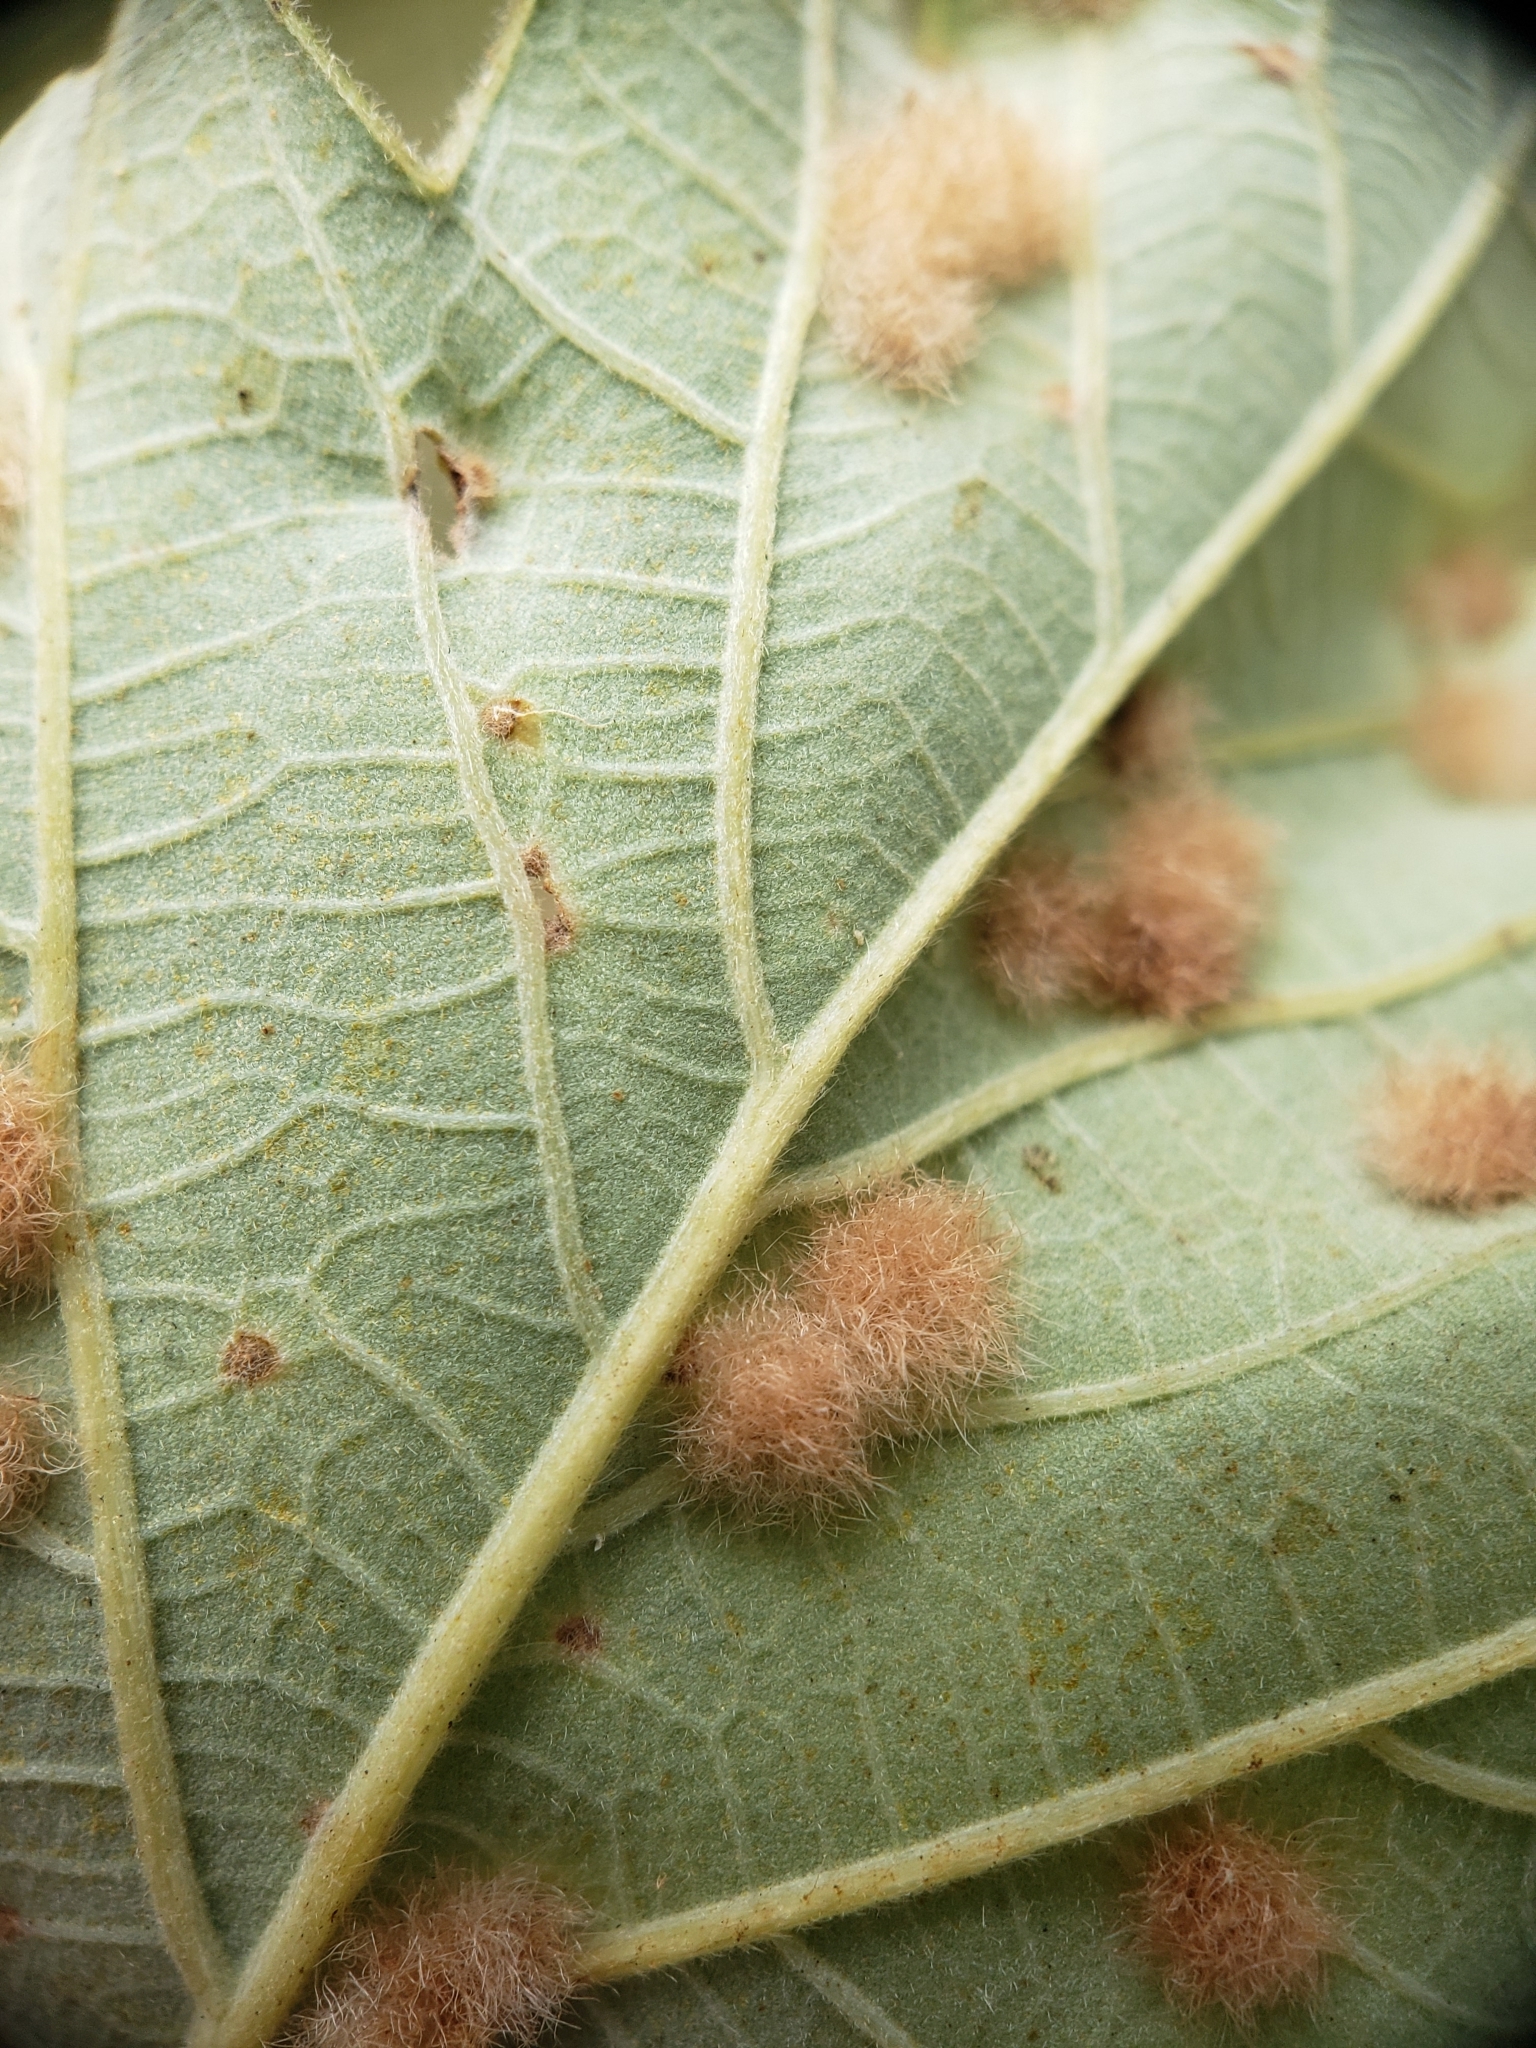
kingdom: Animalia
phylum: Arthropoda
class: Insecta
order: Hymenoptera
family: Cynipidae
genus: Neuroterus
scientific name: Neuroterus quercusverrucarum
